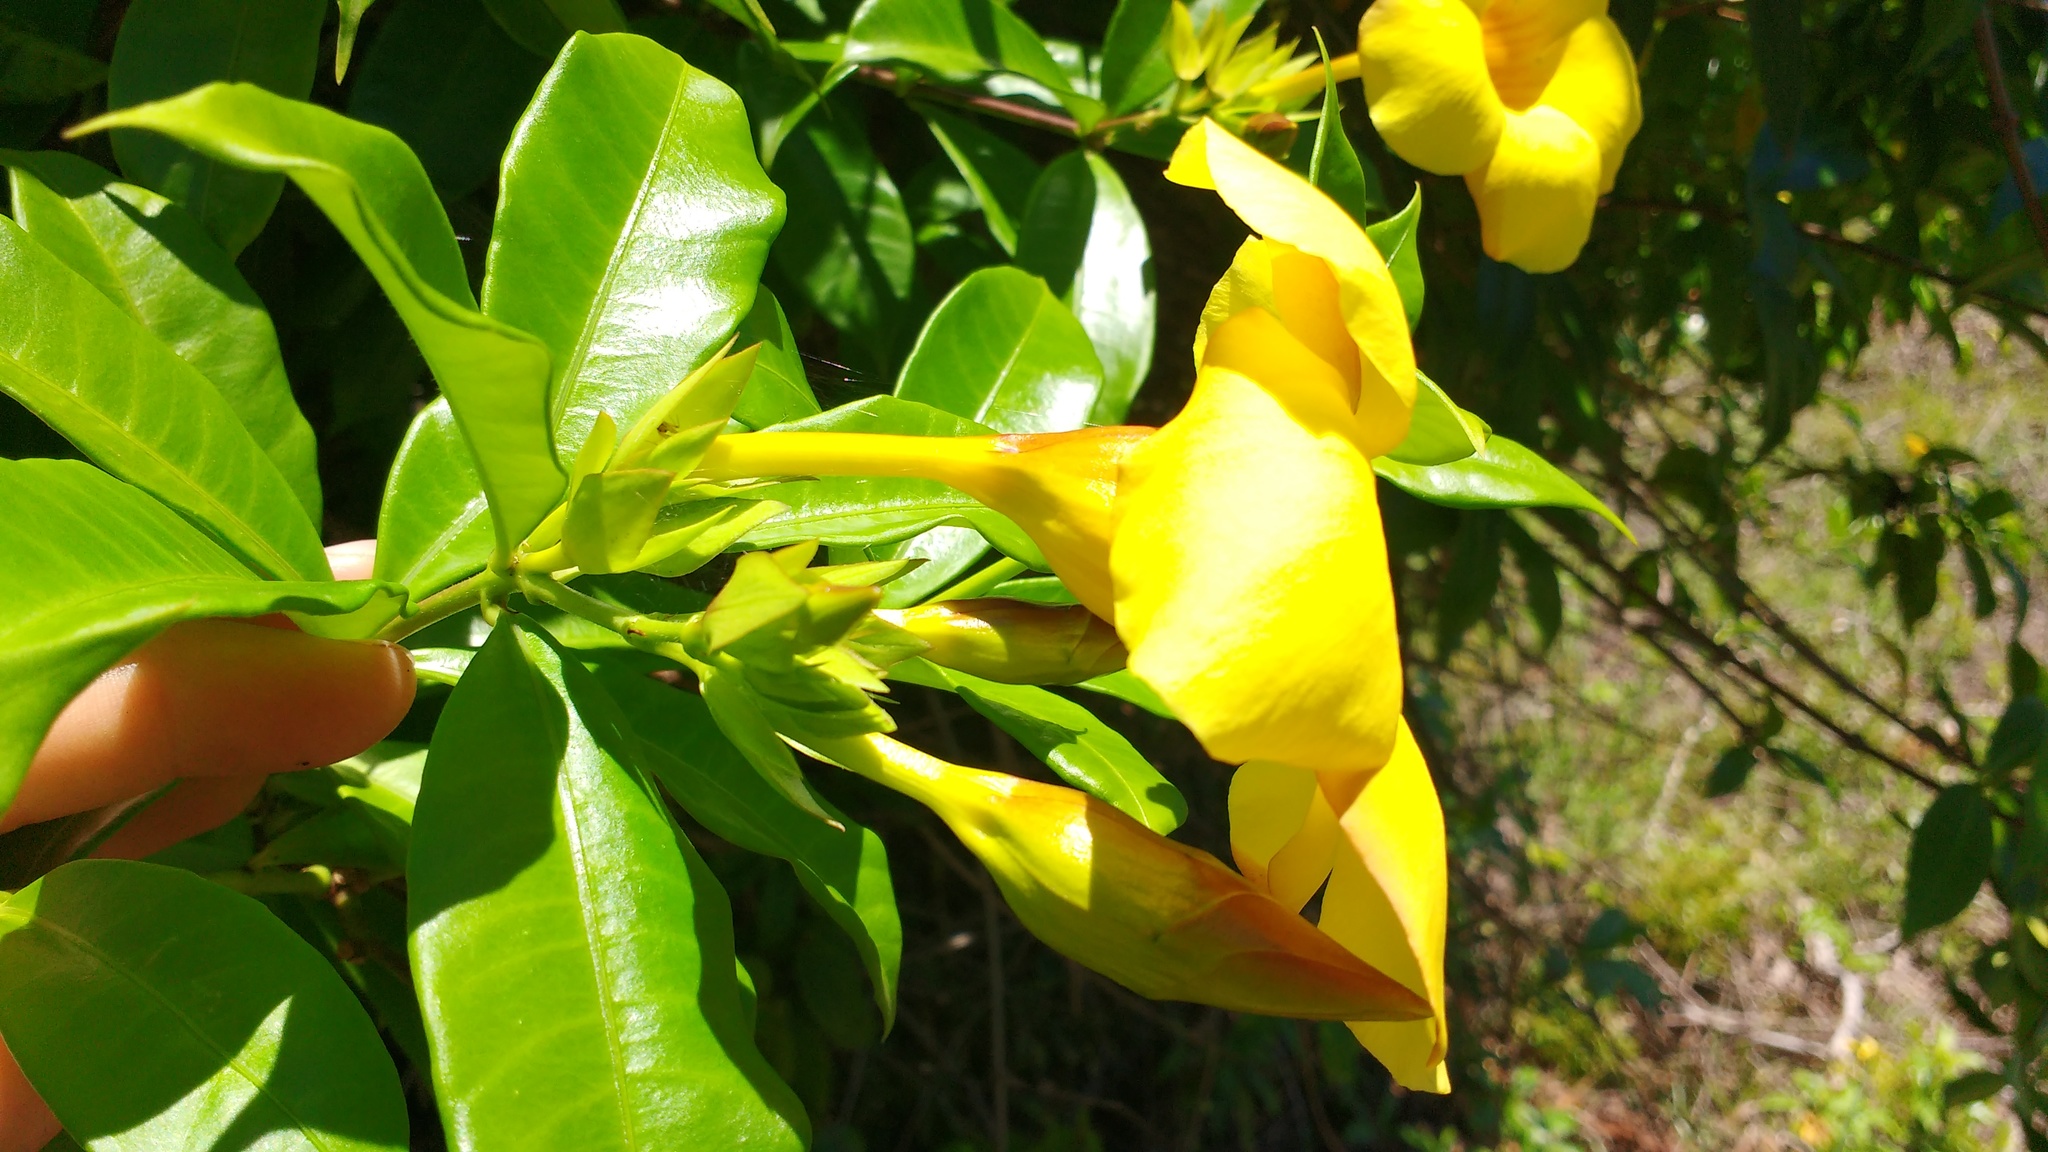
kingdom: Plantae
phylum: Tracheophyta
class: Magnoliopsida
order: Gentianales
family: Apocynaceae
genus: Allamanda
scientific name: Allamanda cathartica
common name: Golden trumpet
